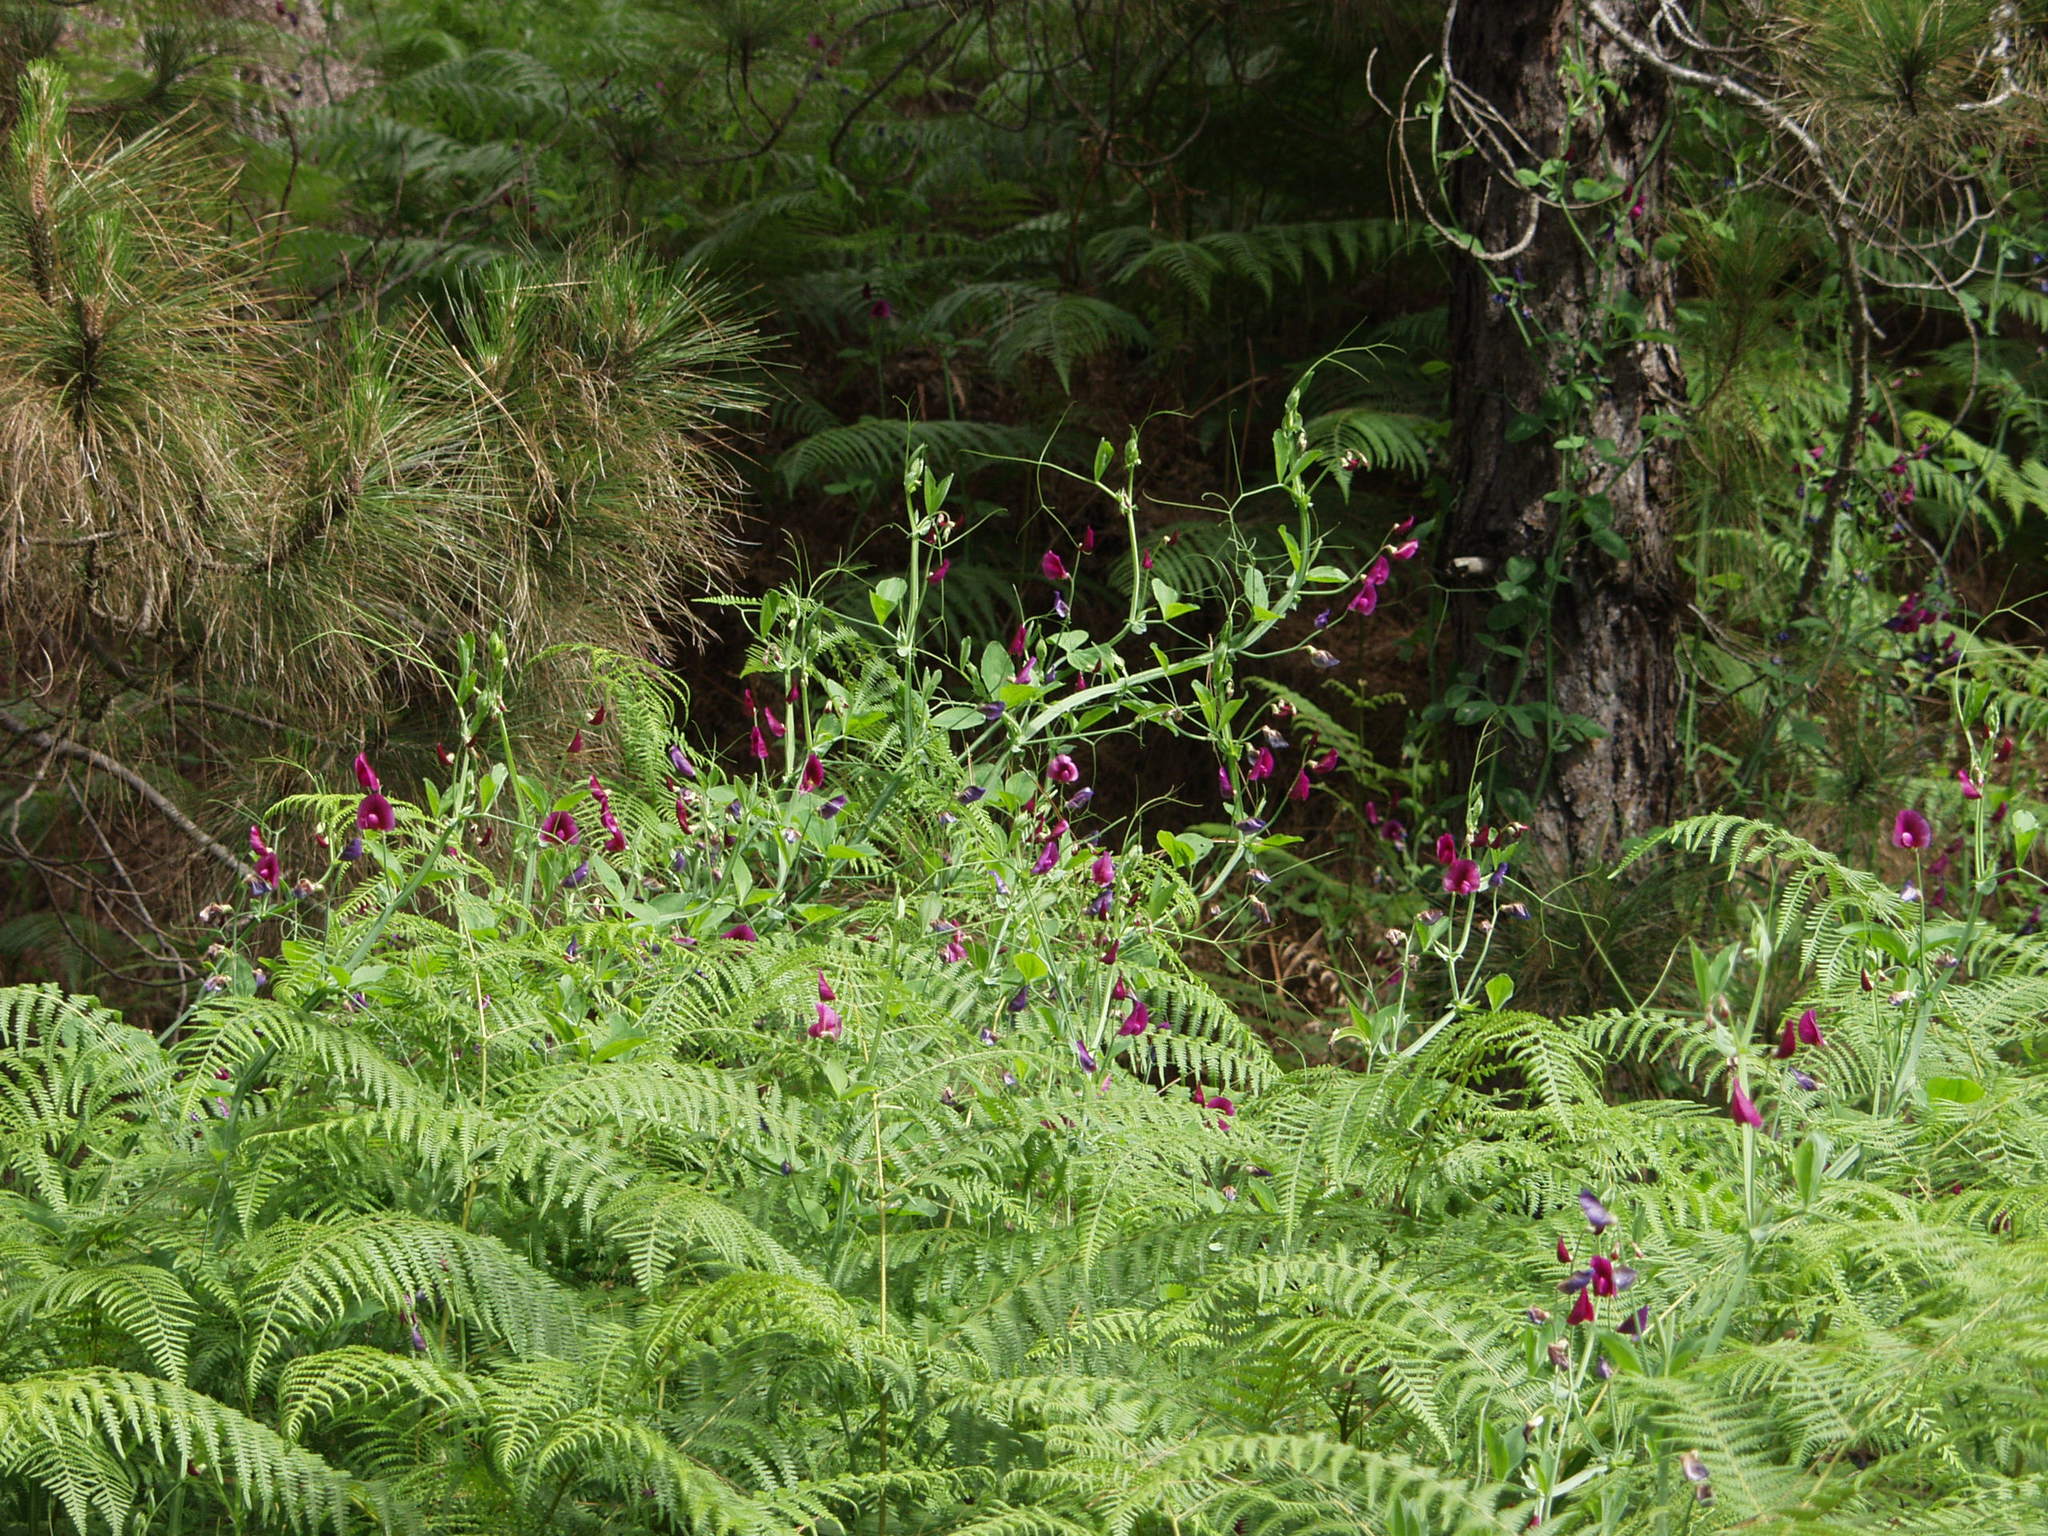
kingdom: Plantae
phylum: Tracheophyta
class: Magnoliopsida
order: Fabales
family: Fabaceae
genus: Lathyrus
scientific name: Lathyrus tingitanus
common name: Tangier pea
